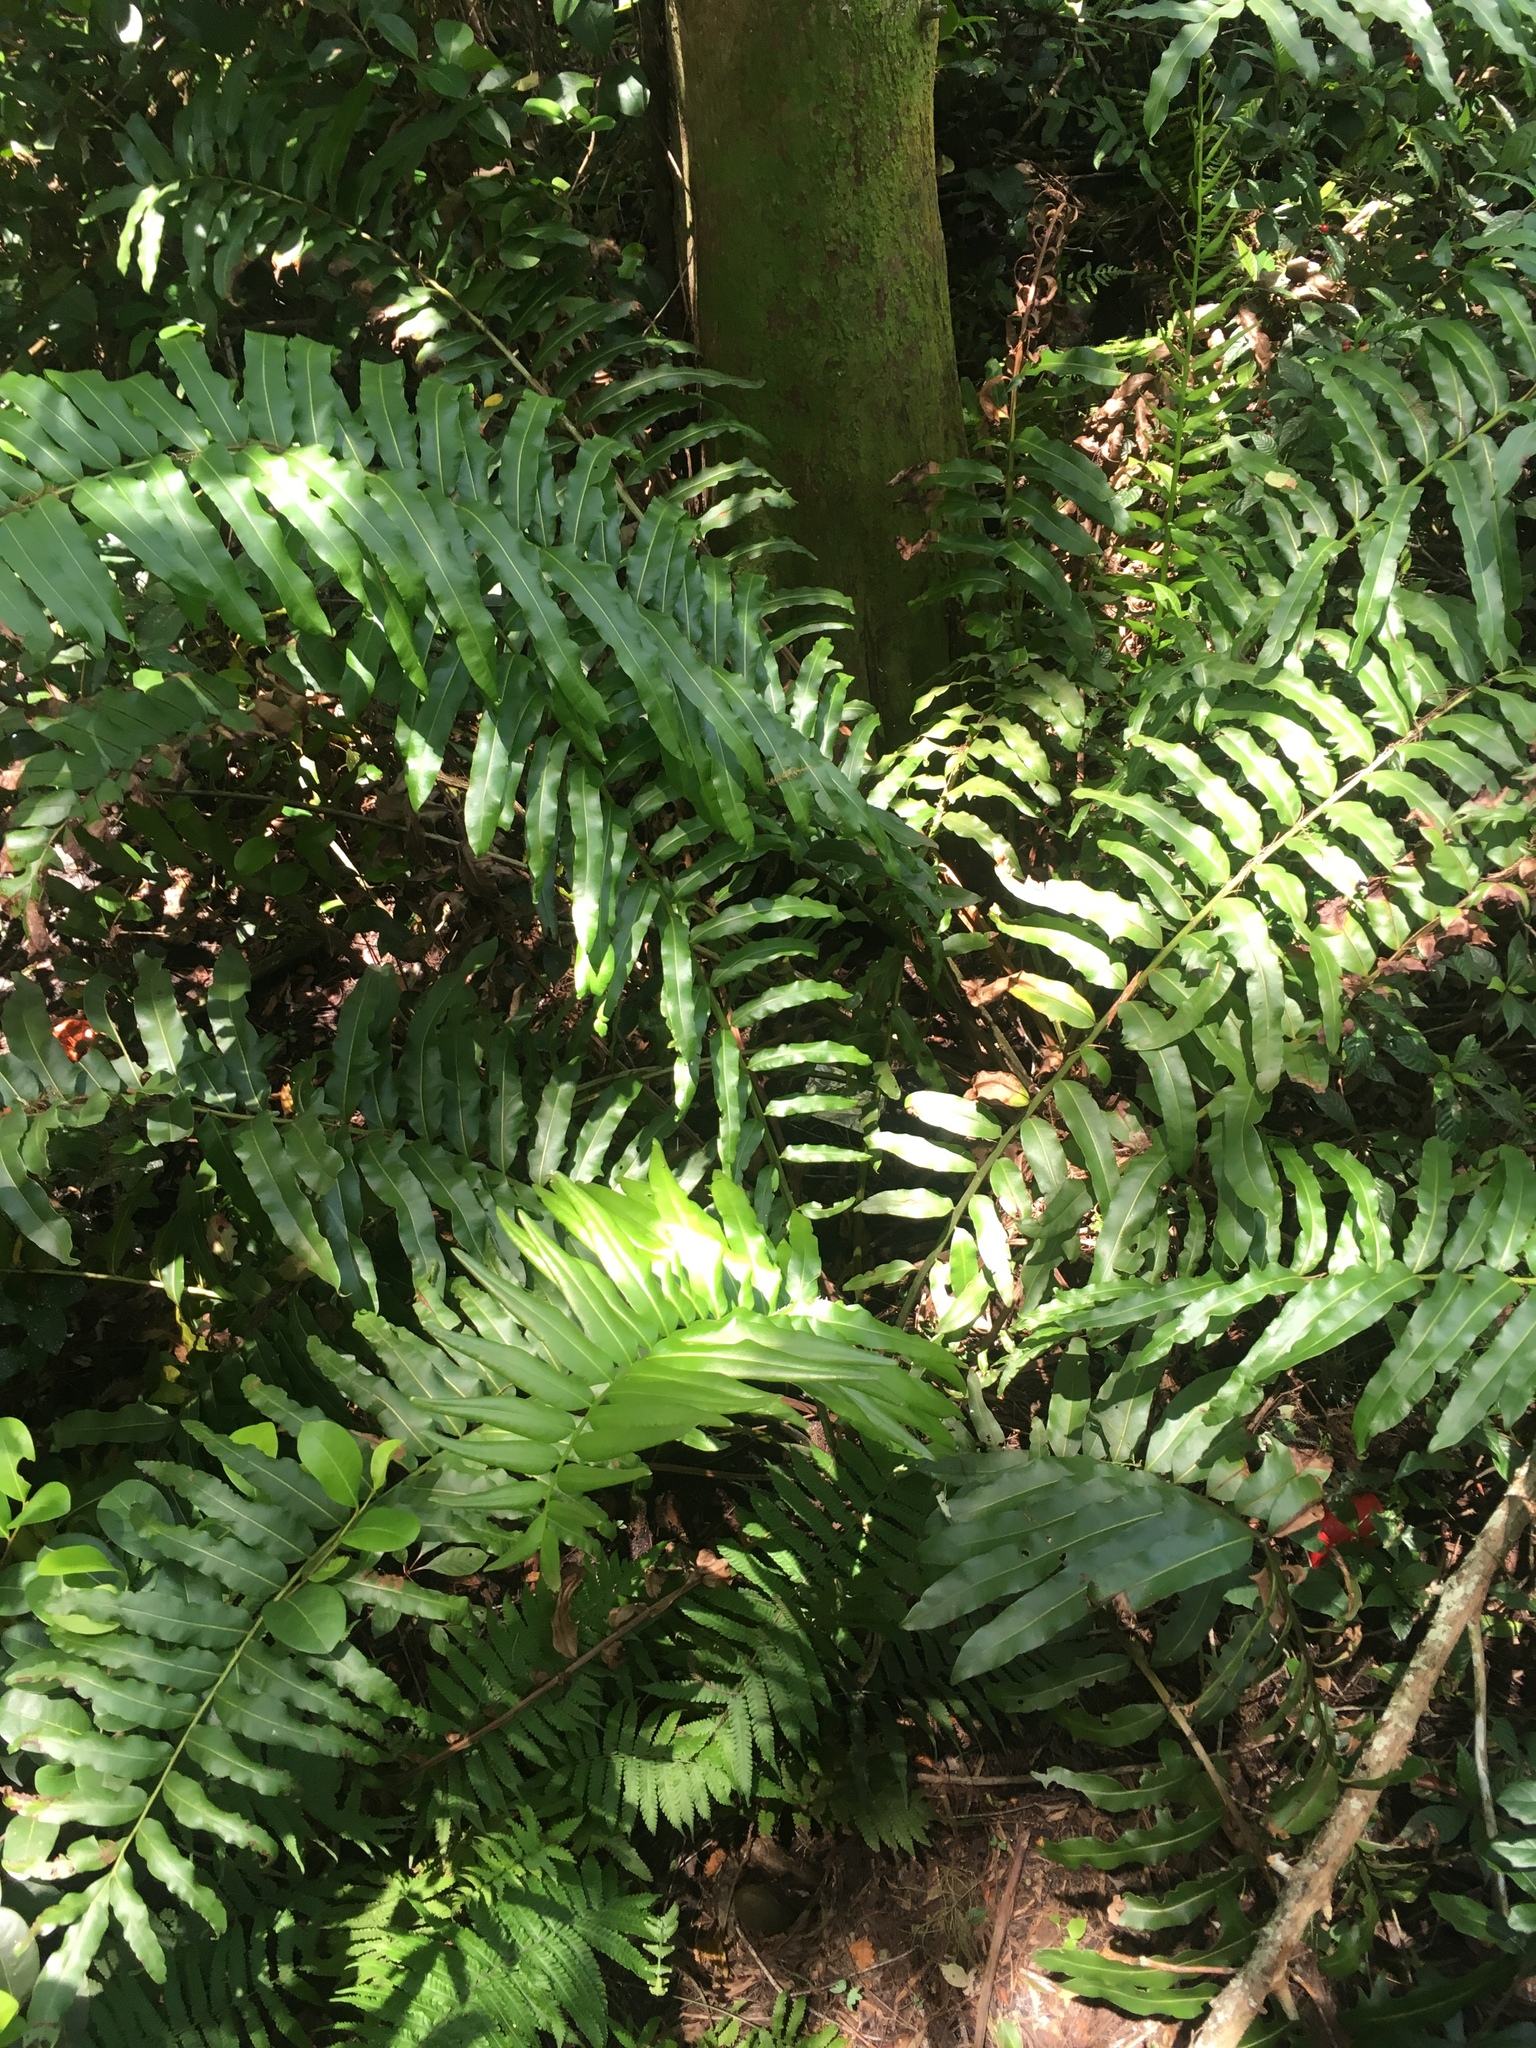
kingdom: Plantae
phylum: Tracheophyta
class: Polypodiopsida
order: Polypodiales
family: Pteridaceae
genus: Acrostichum
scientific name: Acrostichum danaeifolium
